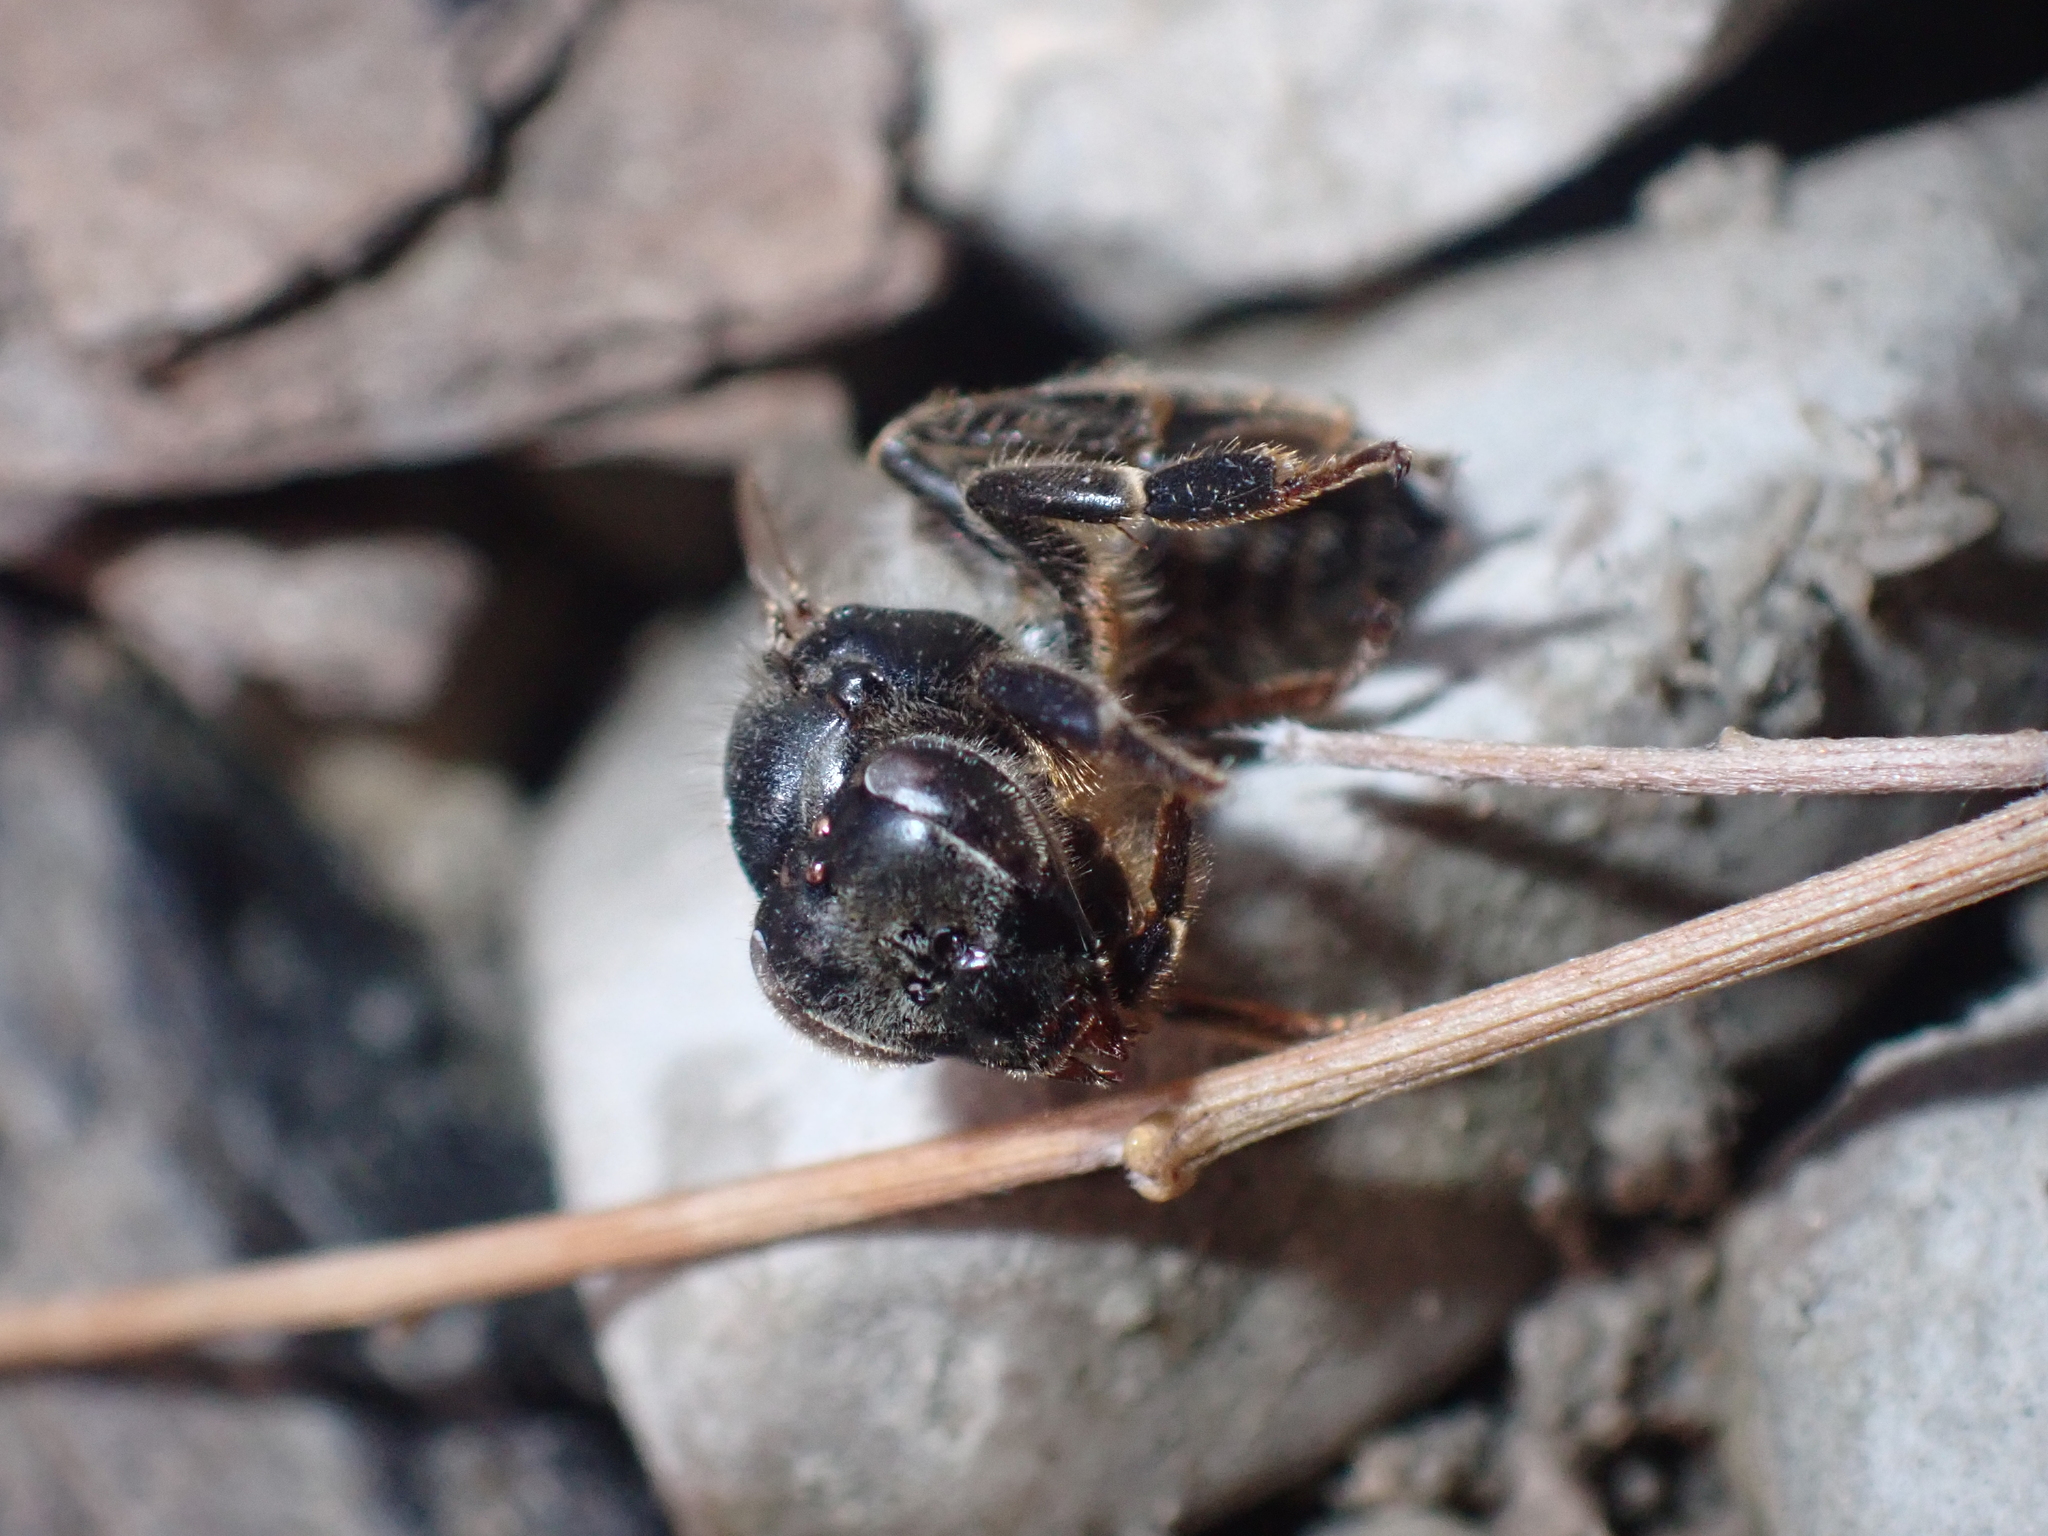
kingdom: Animalia
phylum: Arthropoda
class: Insecta
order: Hymenoptera
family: Apidae
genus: Apis
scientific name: Apis mellifera
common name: Honey bee
